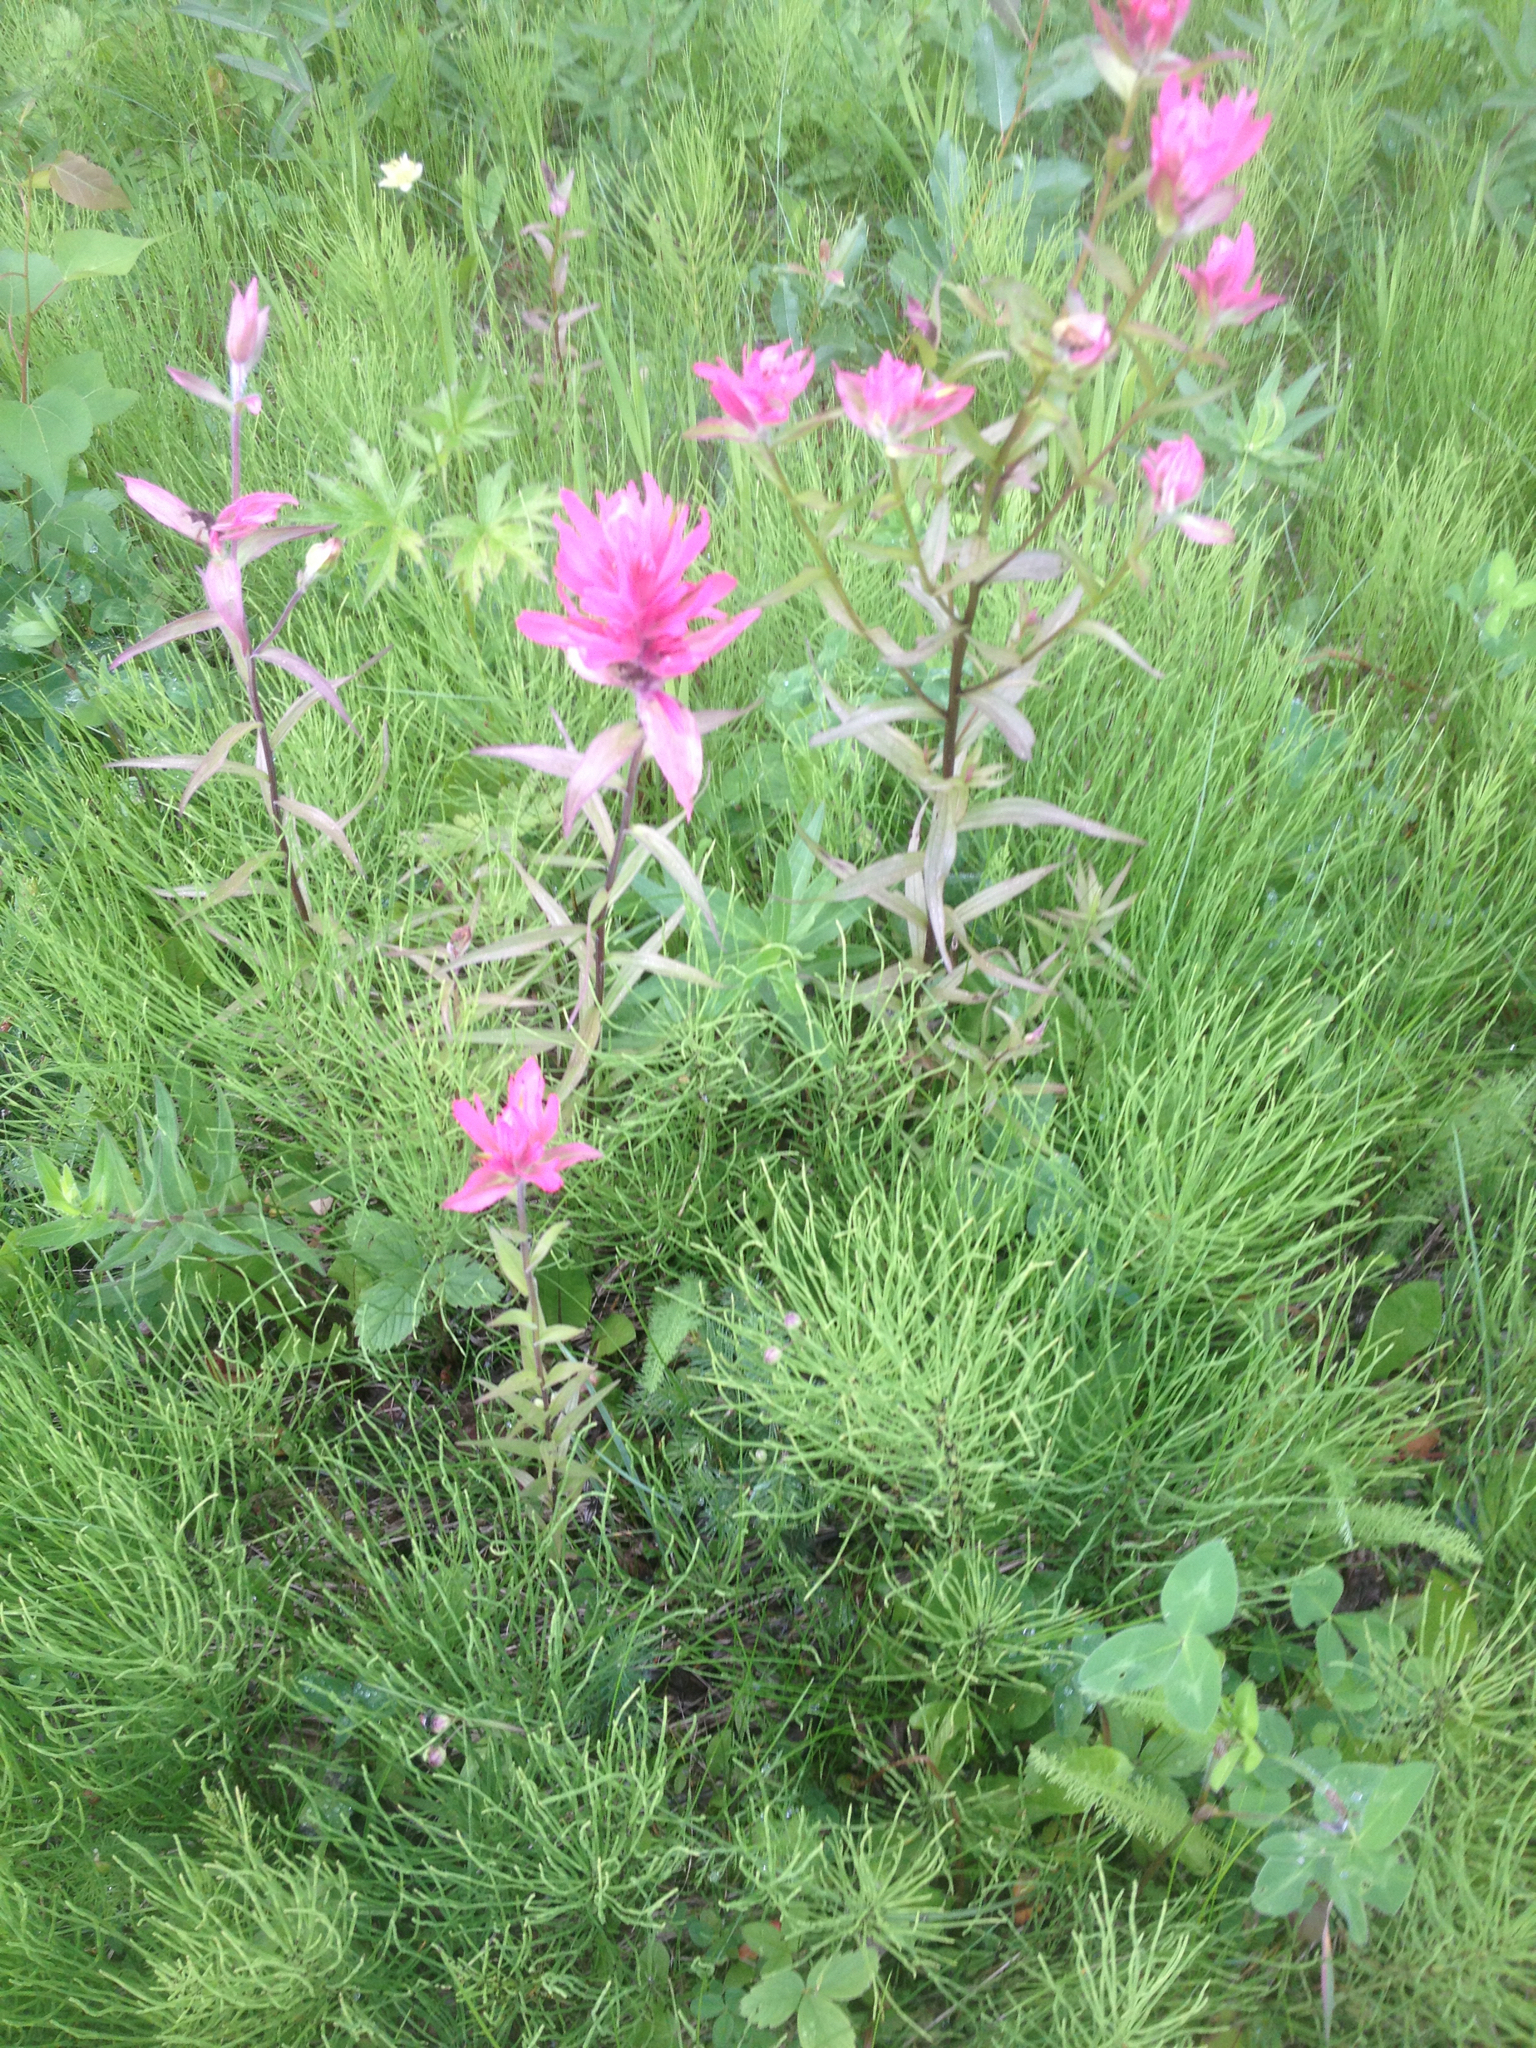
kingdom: Plantae
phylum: Tracheophyta
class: Magnoliopsida
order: Lamiales
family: Orobanchaceae
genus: Castilleja
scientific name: Castilleja miniata
